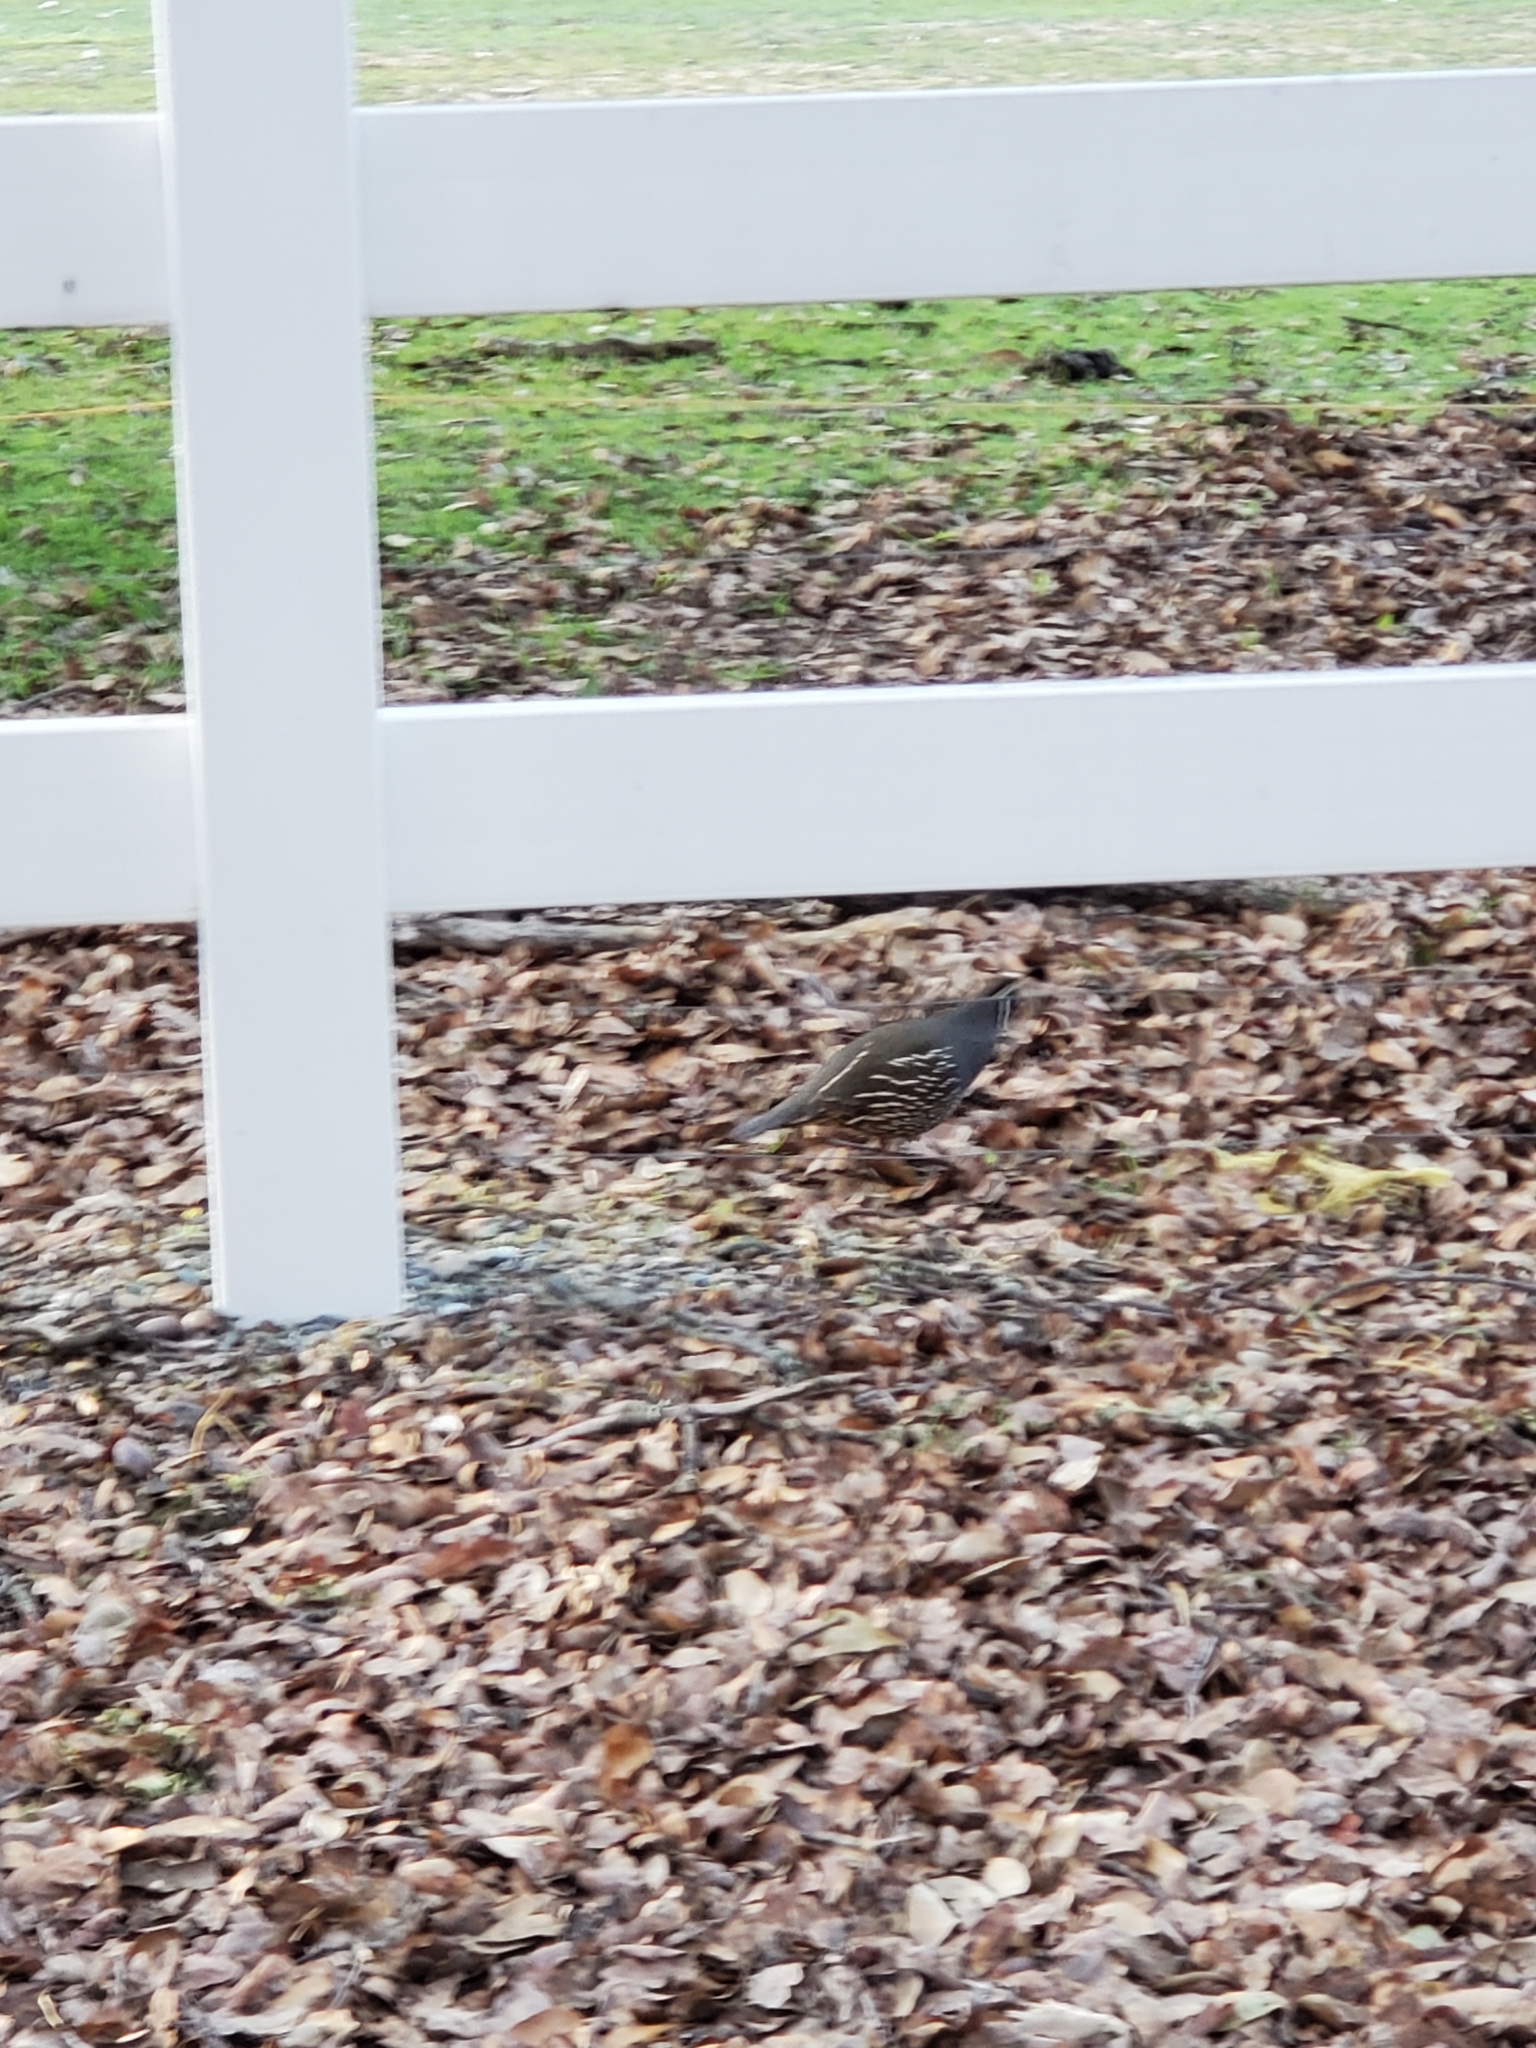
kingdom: Animalia
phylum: Chordata
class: Aves
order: Galliformes
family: Odontophoridae
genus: Callipepla
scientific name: Callipepla californica
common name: California quail
